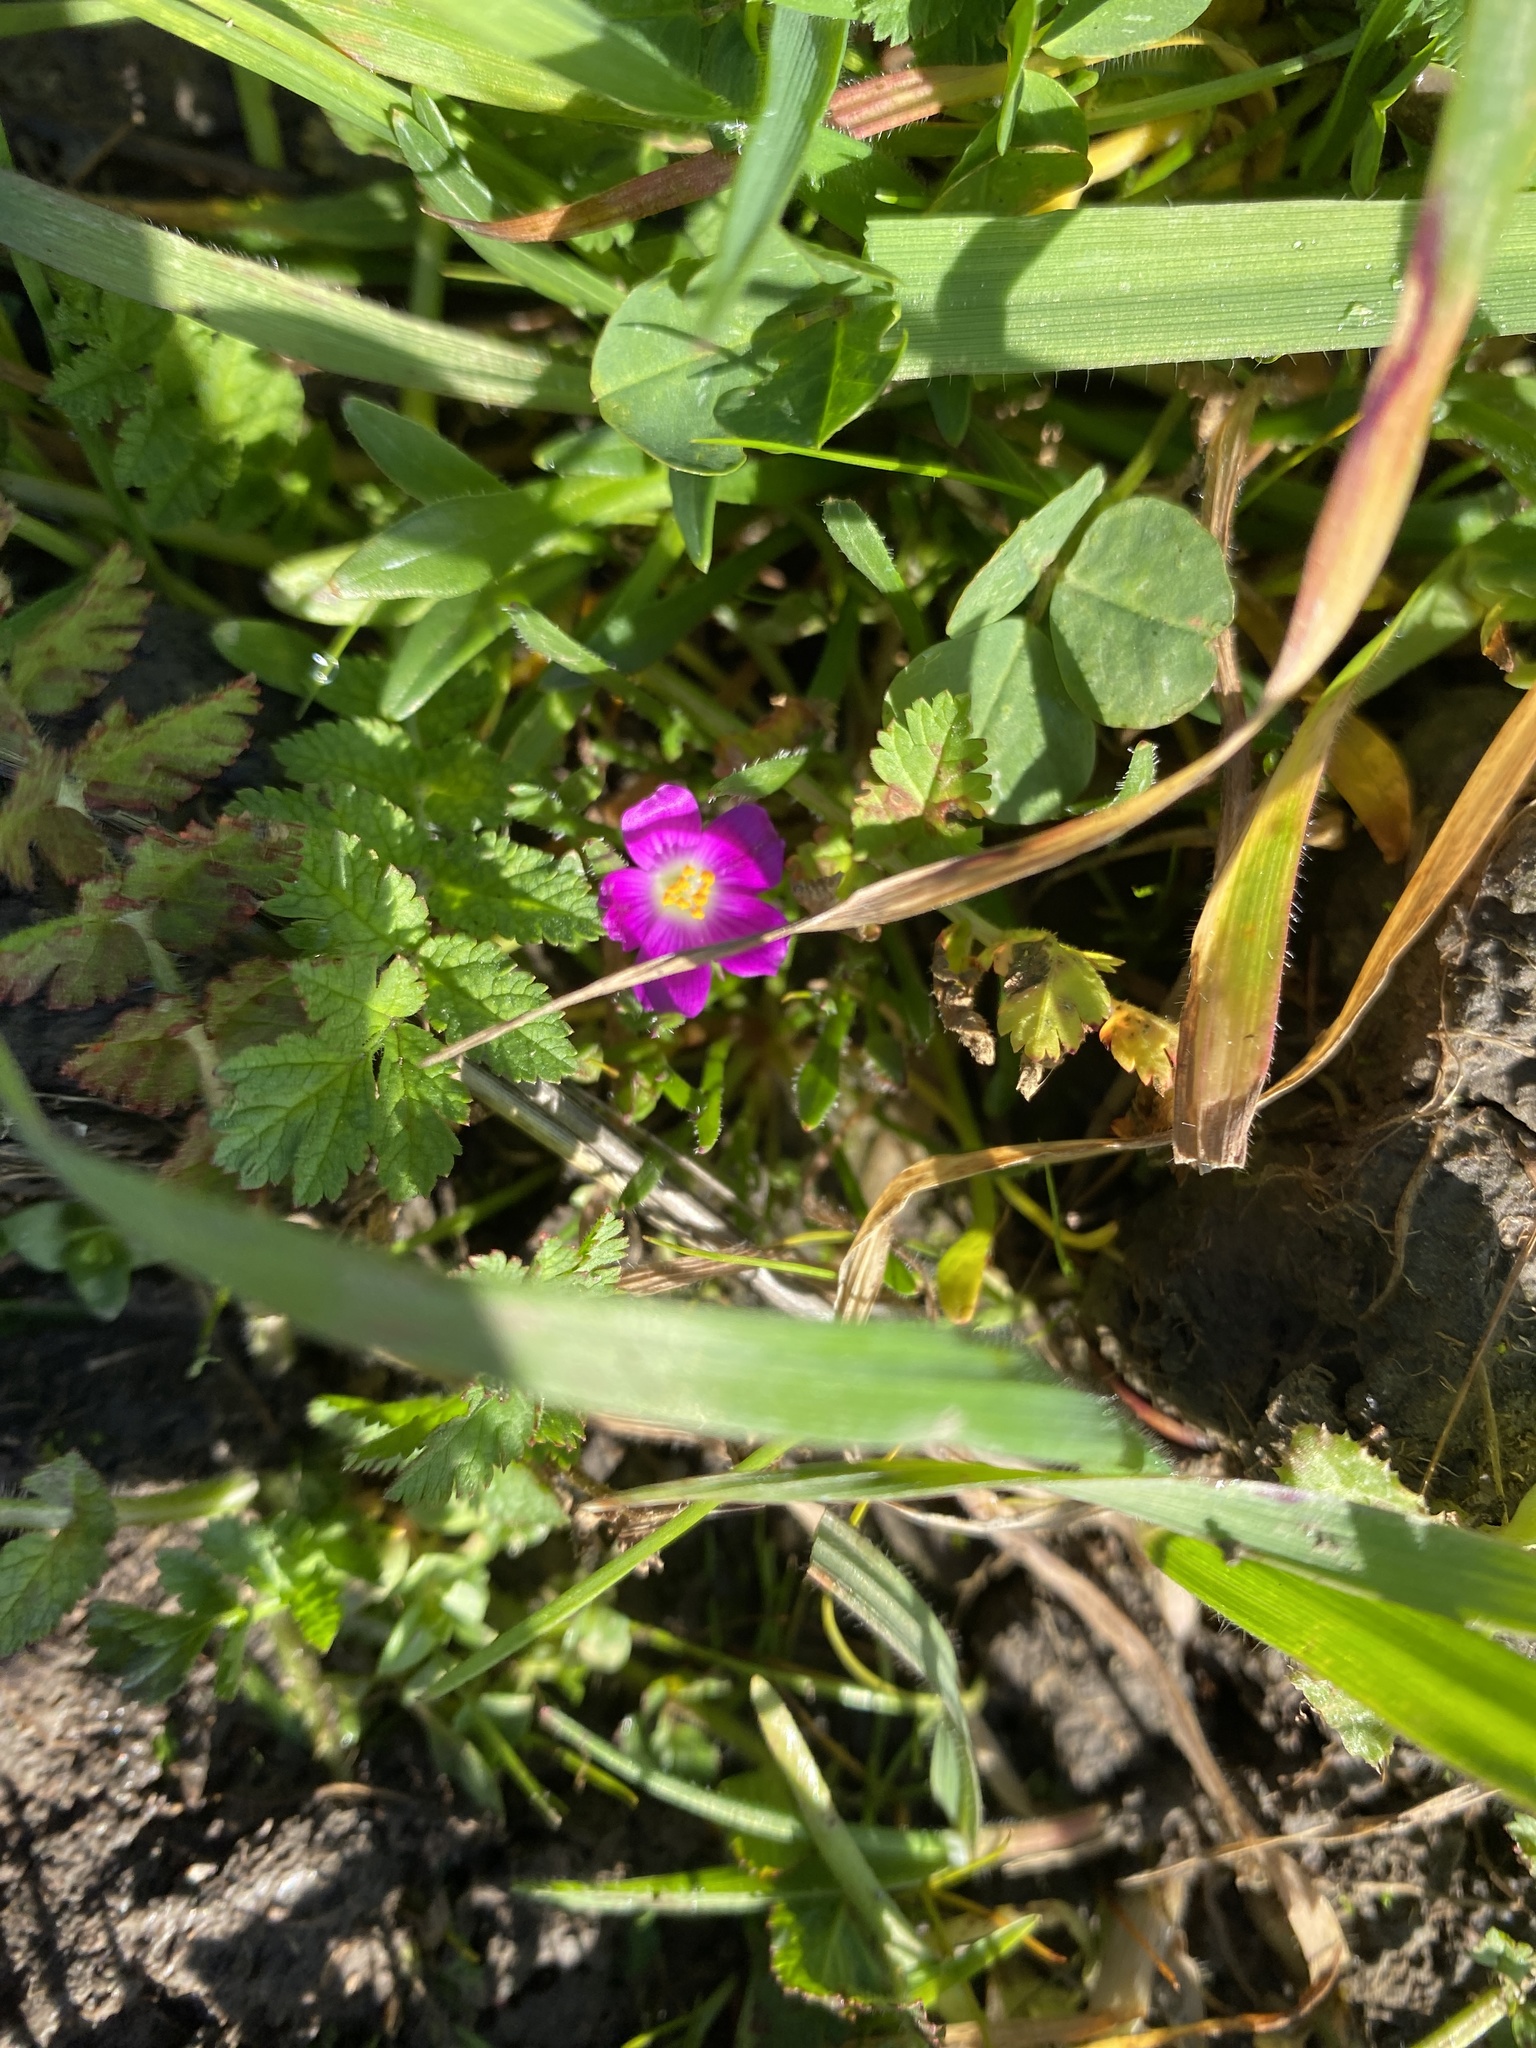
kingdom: Plantae
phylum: Tracheophyta
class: Magnoliopsida
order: Caryophyllales
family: Montiaceae
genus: Calandrinia
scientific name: Calandrinia menziesii
